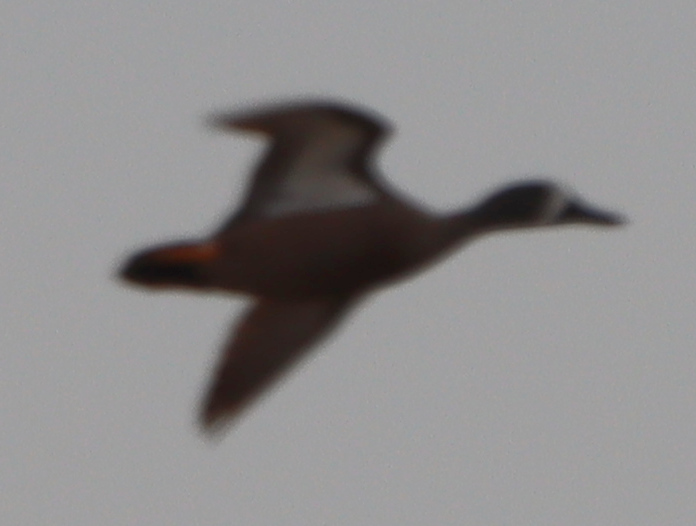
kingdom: Animalia
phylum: Chordata
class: Aves
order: Anseriformes
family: Anatidae
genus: Spatula
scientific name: Spatula discors
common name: Blue-winged teal
